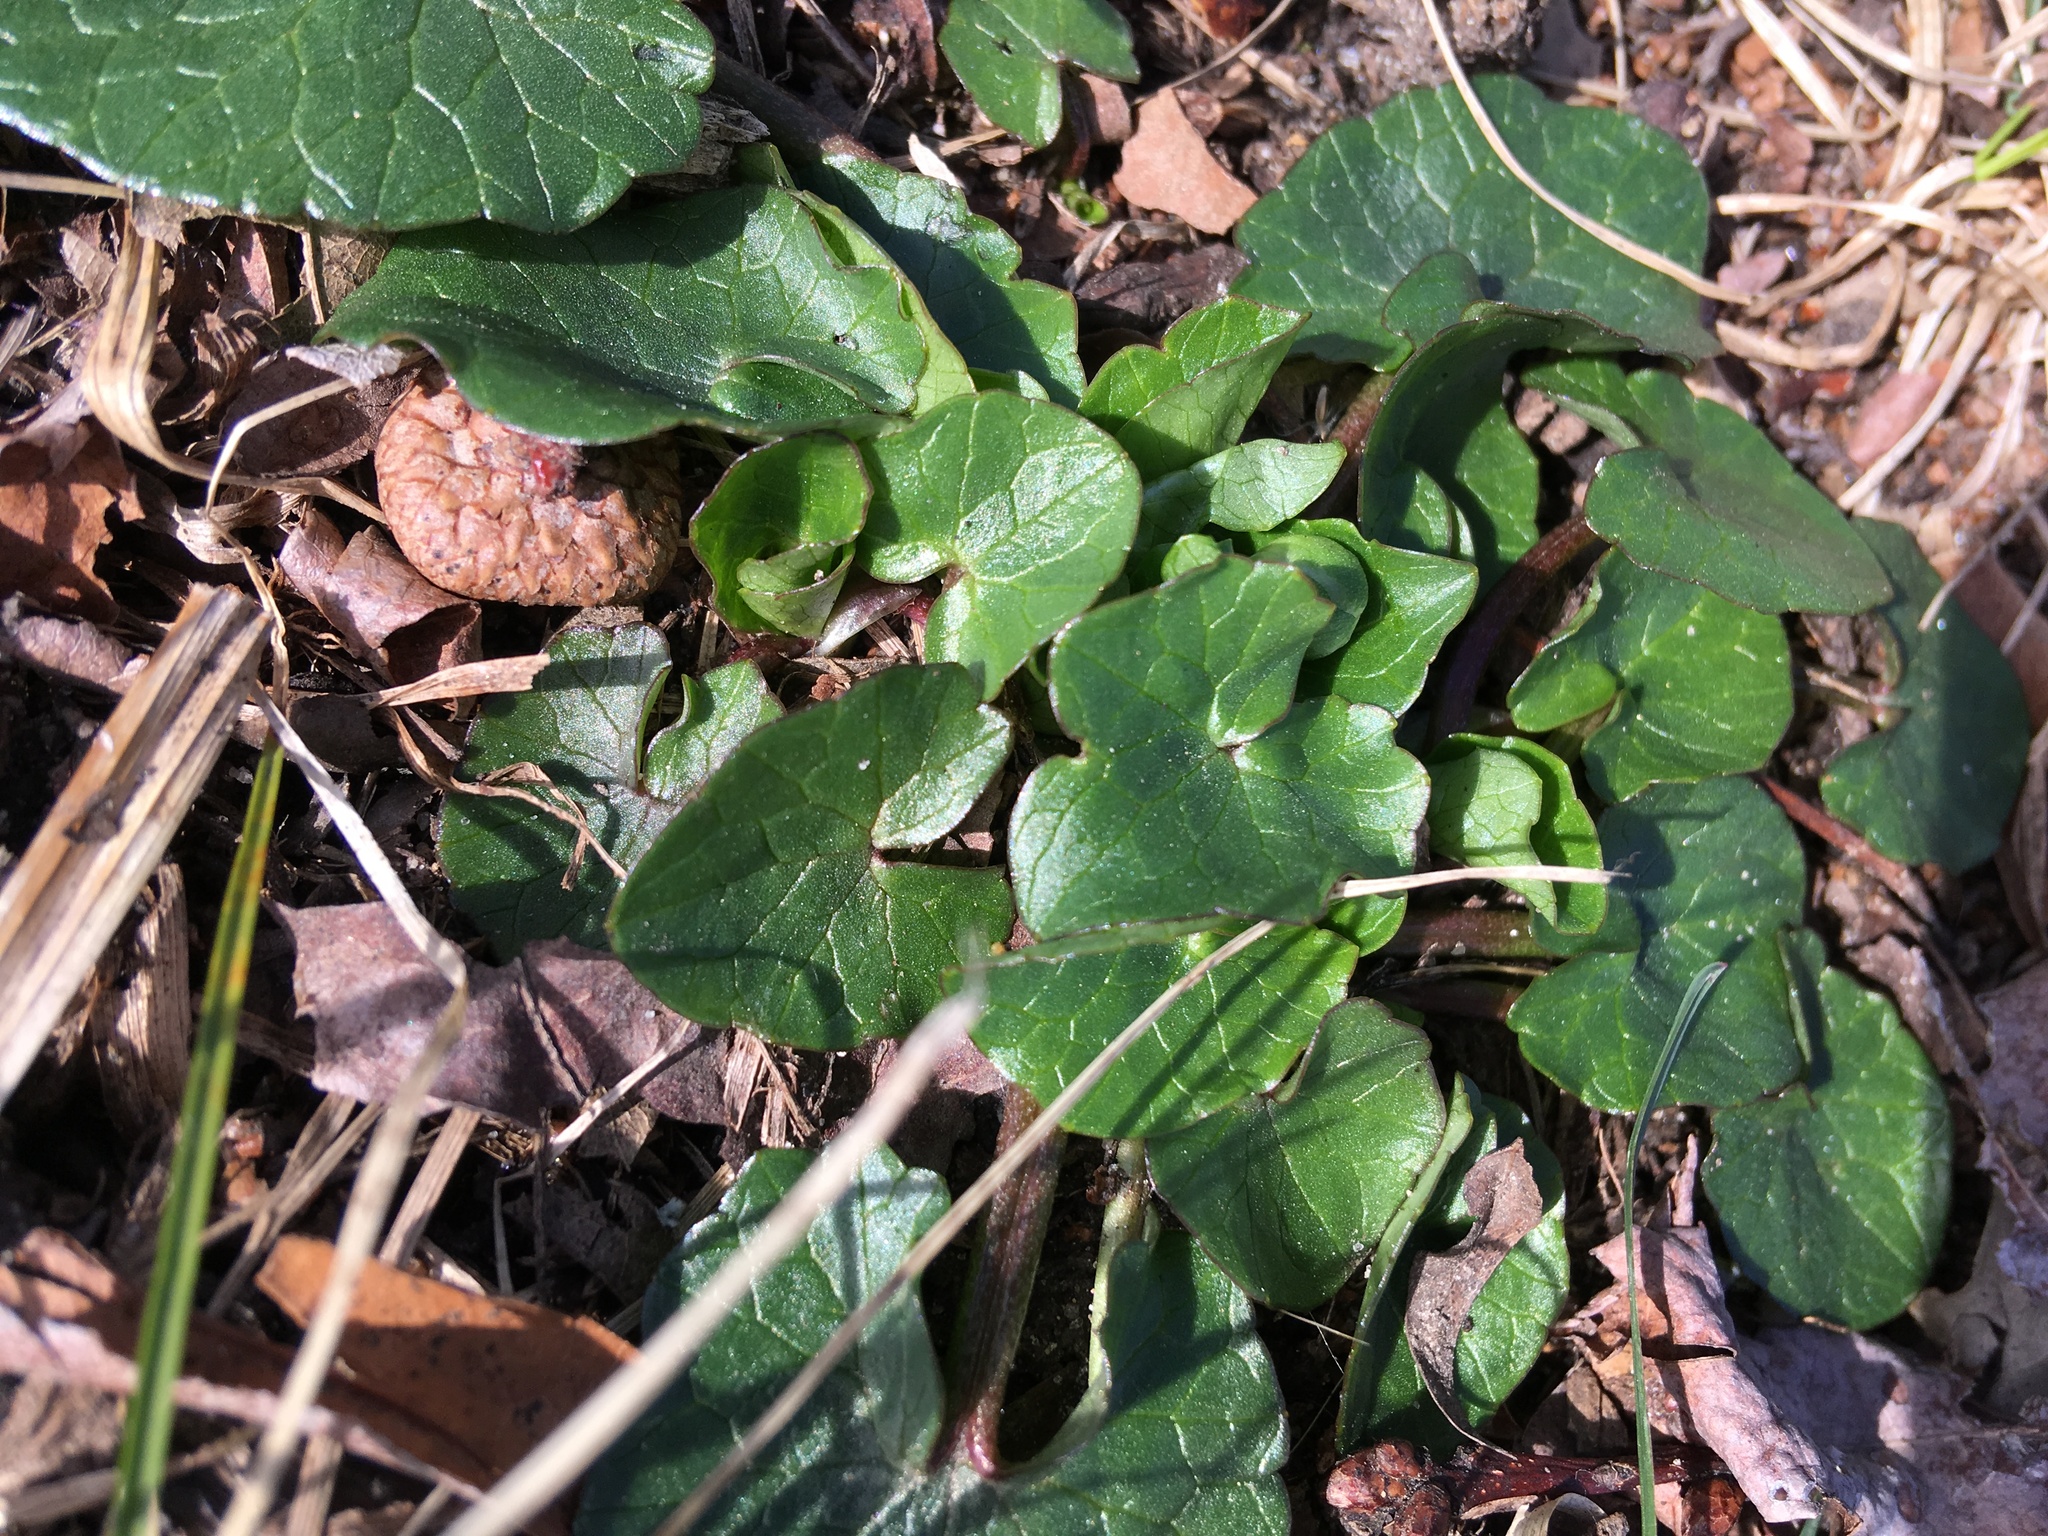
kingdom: Plantae
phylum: Tracheophyta
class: Magnoliopsida
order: Ranunculales
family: Ranunculaceae
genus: Ficaria
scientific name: Ficaria verna
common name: Lesser celandine
